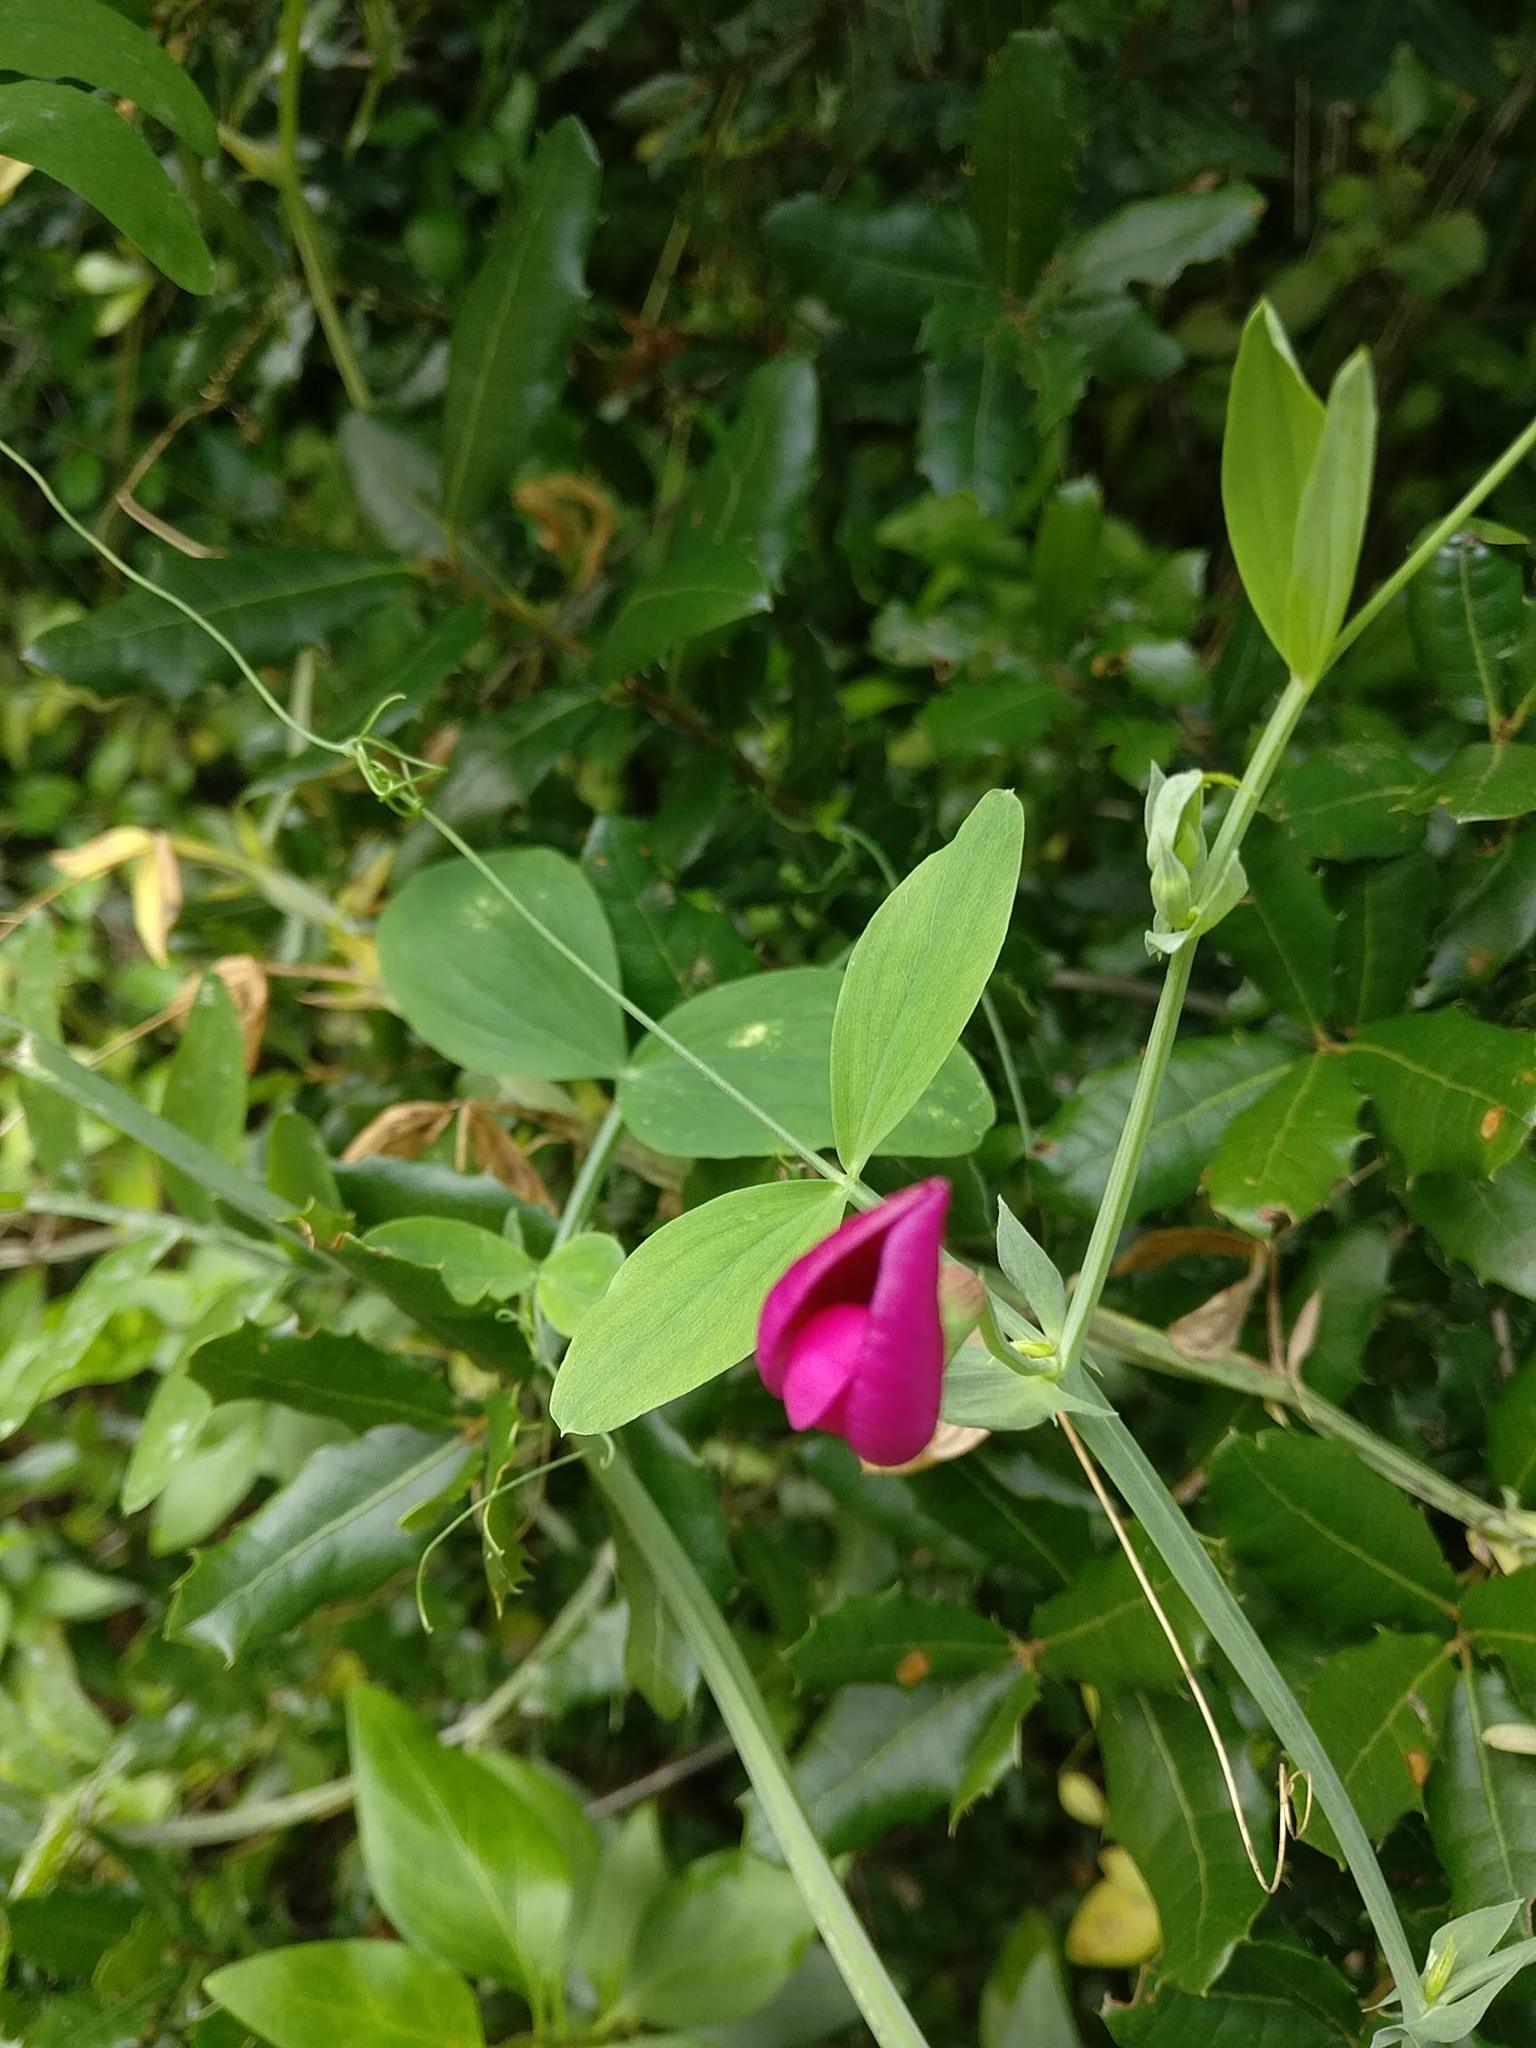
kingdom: Plantae
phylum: Tracheophyta
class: Magnoliopsida
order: Fabales
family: Fabaceae
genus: Lathyrus
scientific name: Lathyrus tingitanus
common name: Tangier pea
